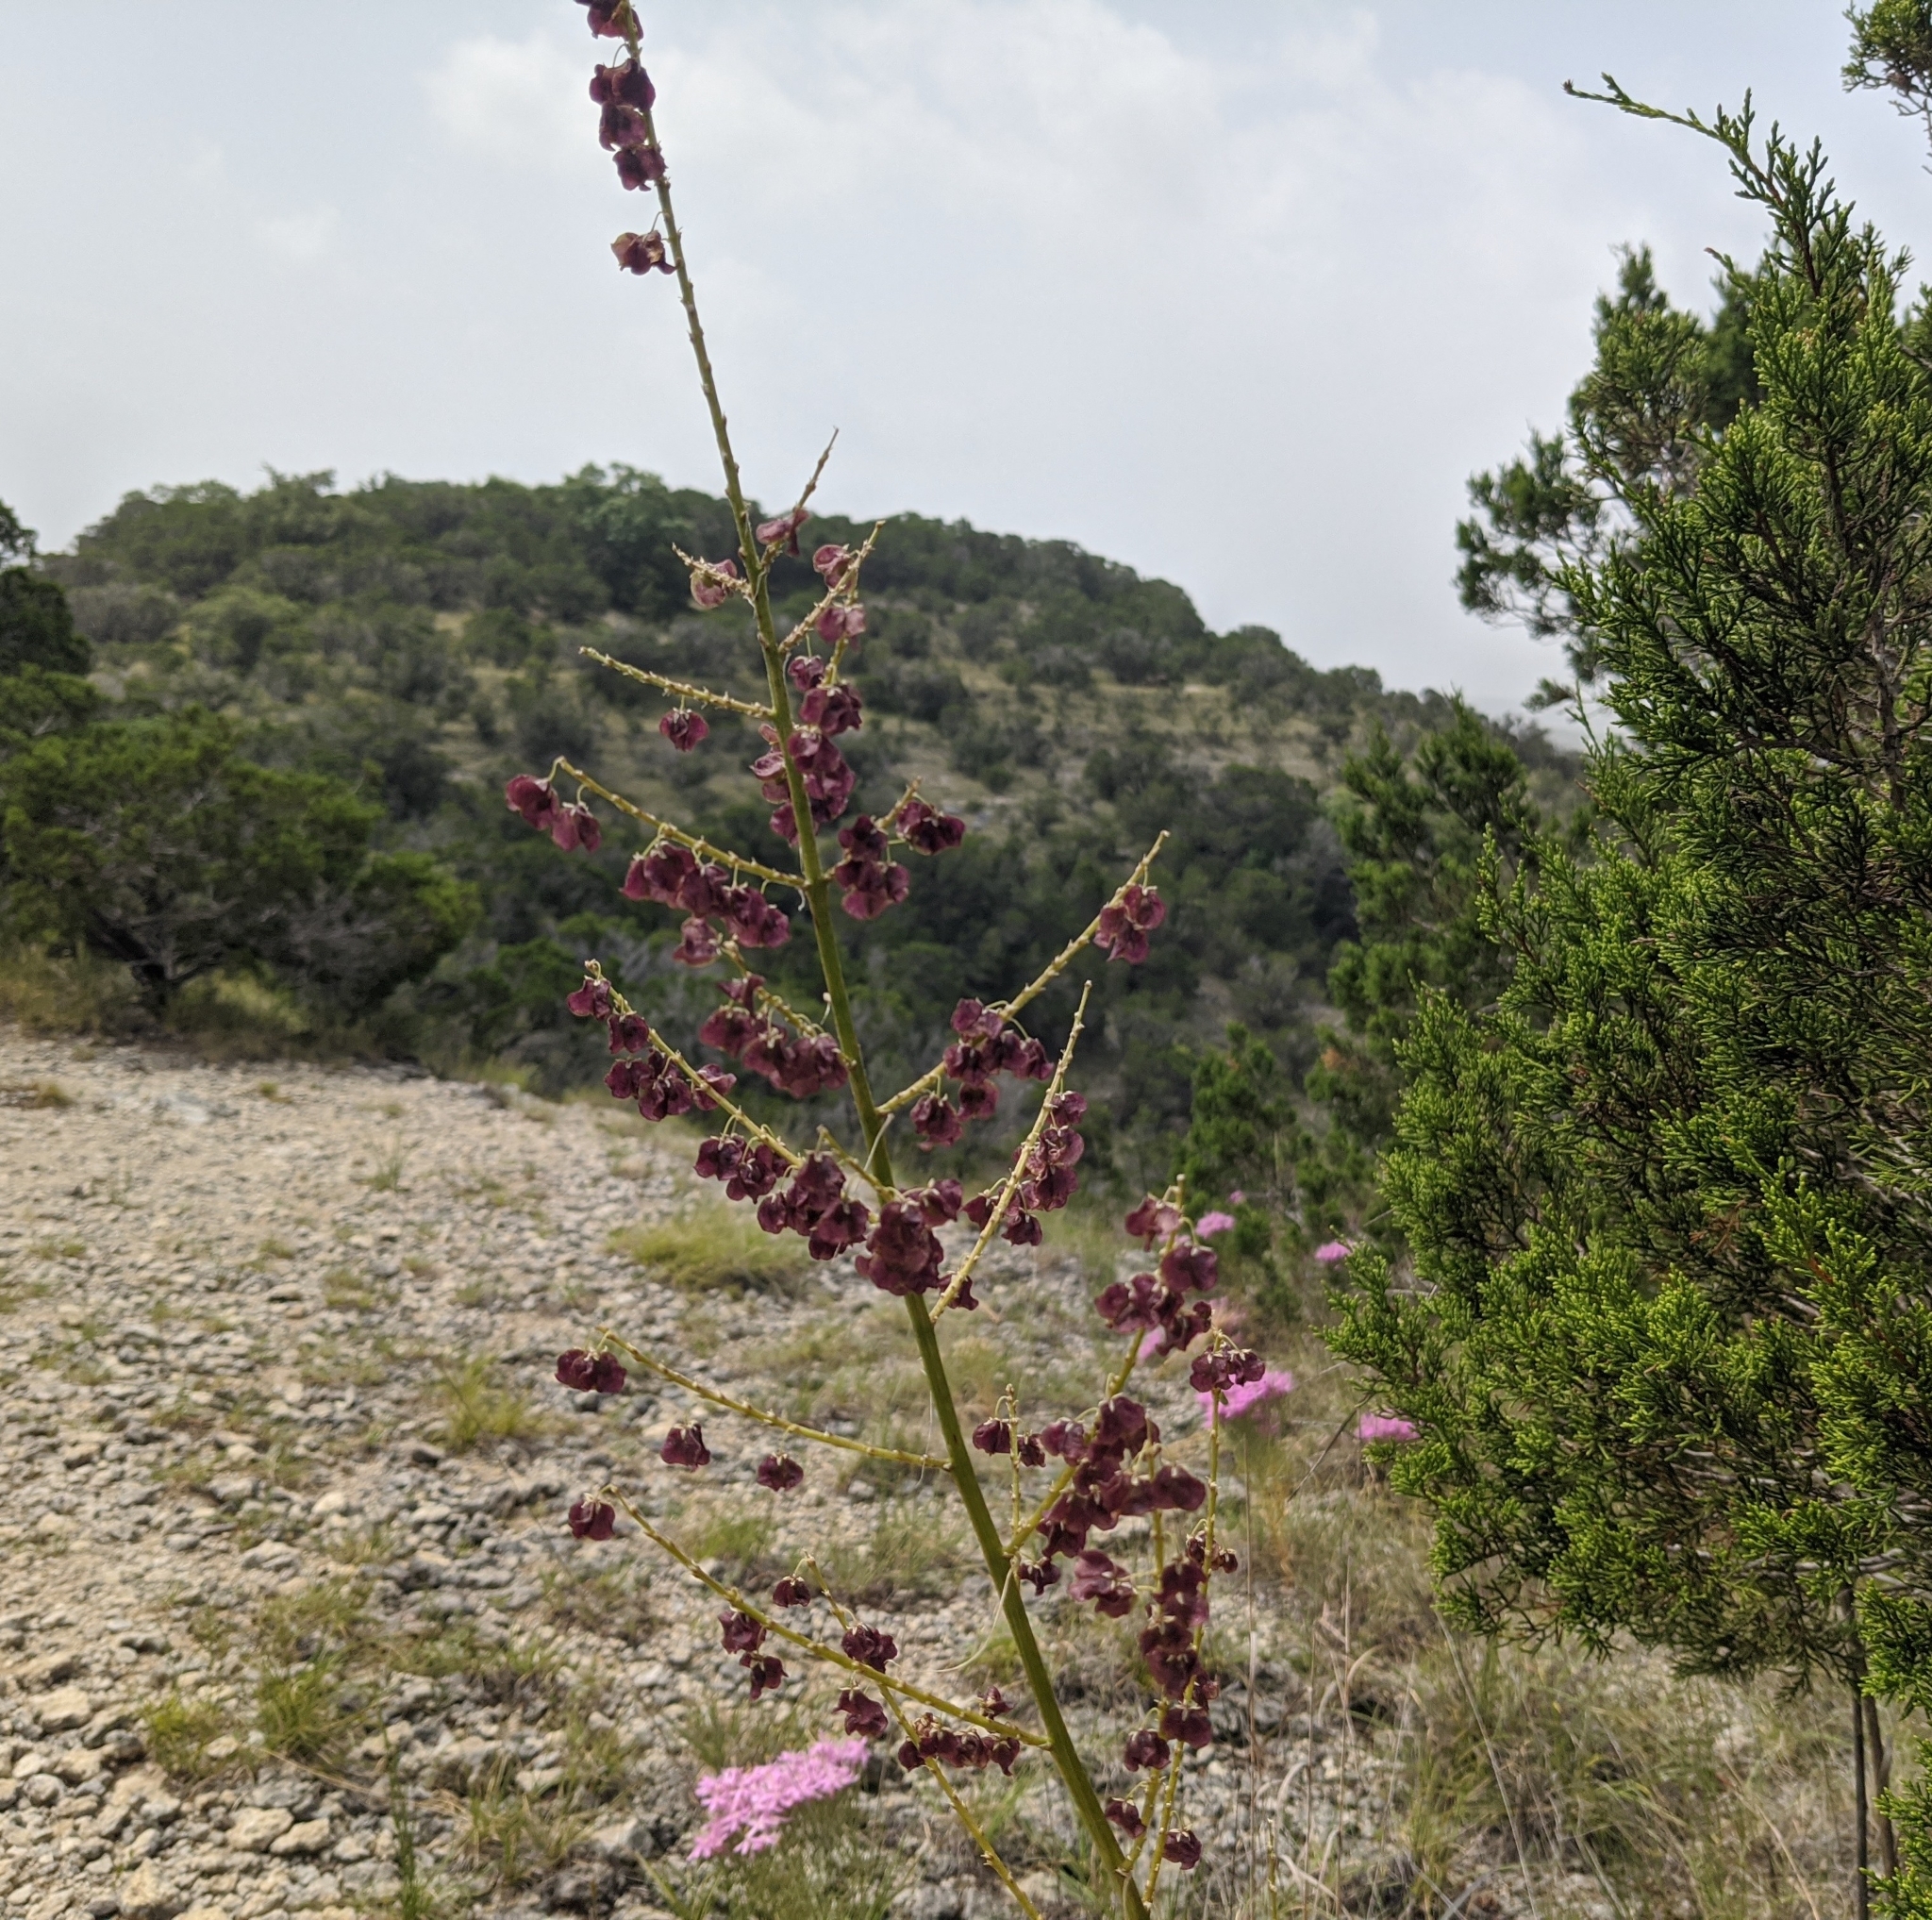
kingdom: Plantae
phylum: Tracheophyta
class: Liliopsida
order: Asparagales
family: Asparagaceae
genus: Nolina
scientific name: Nolina lindheimeriana
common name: Lindheimer's bear-grass
